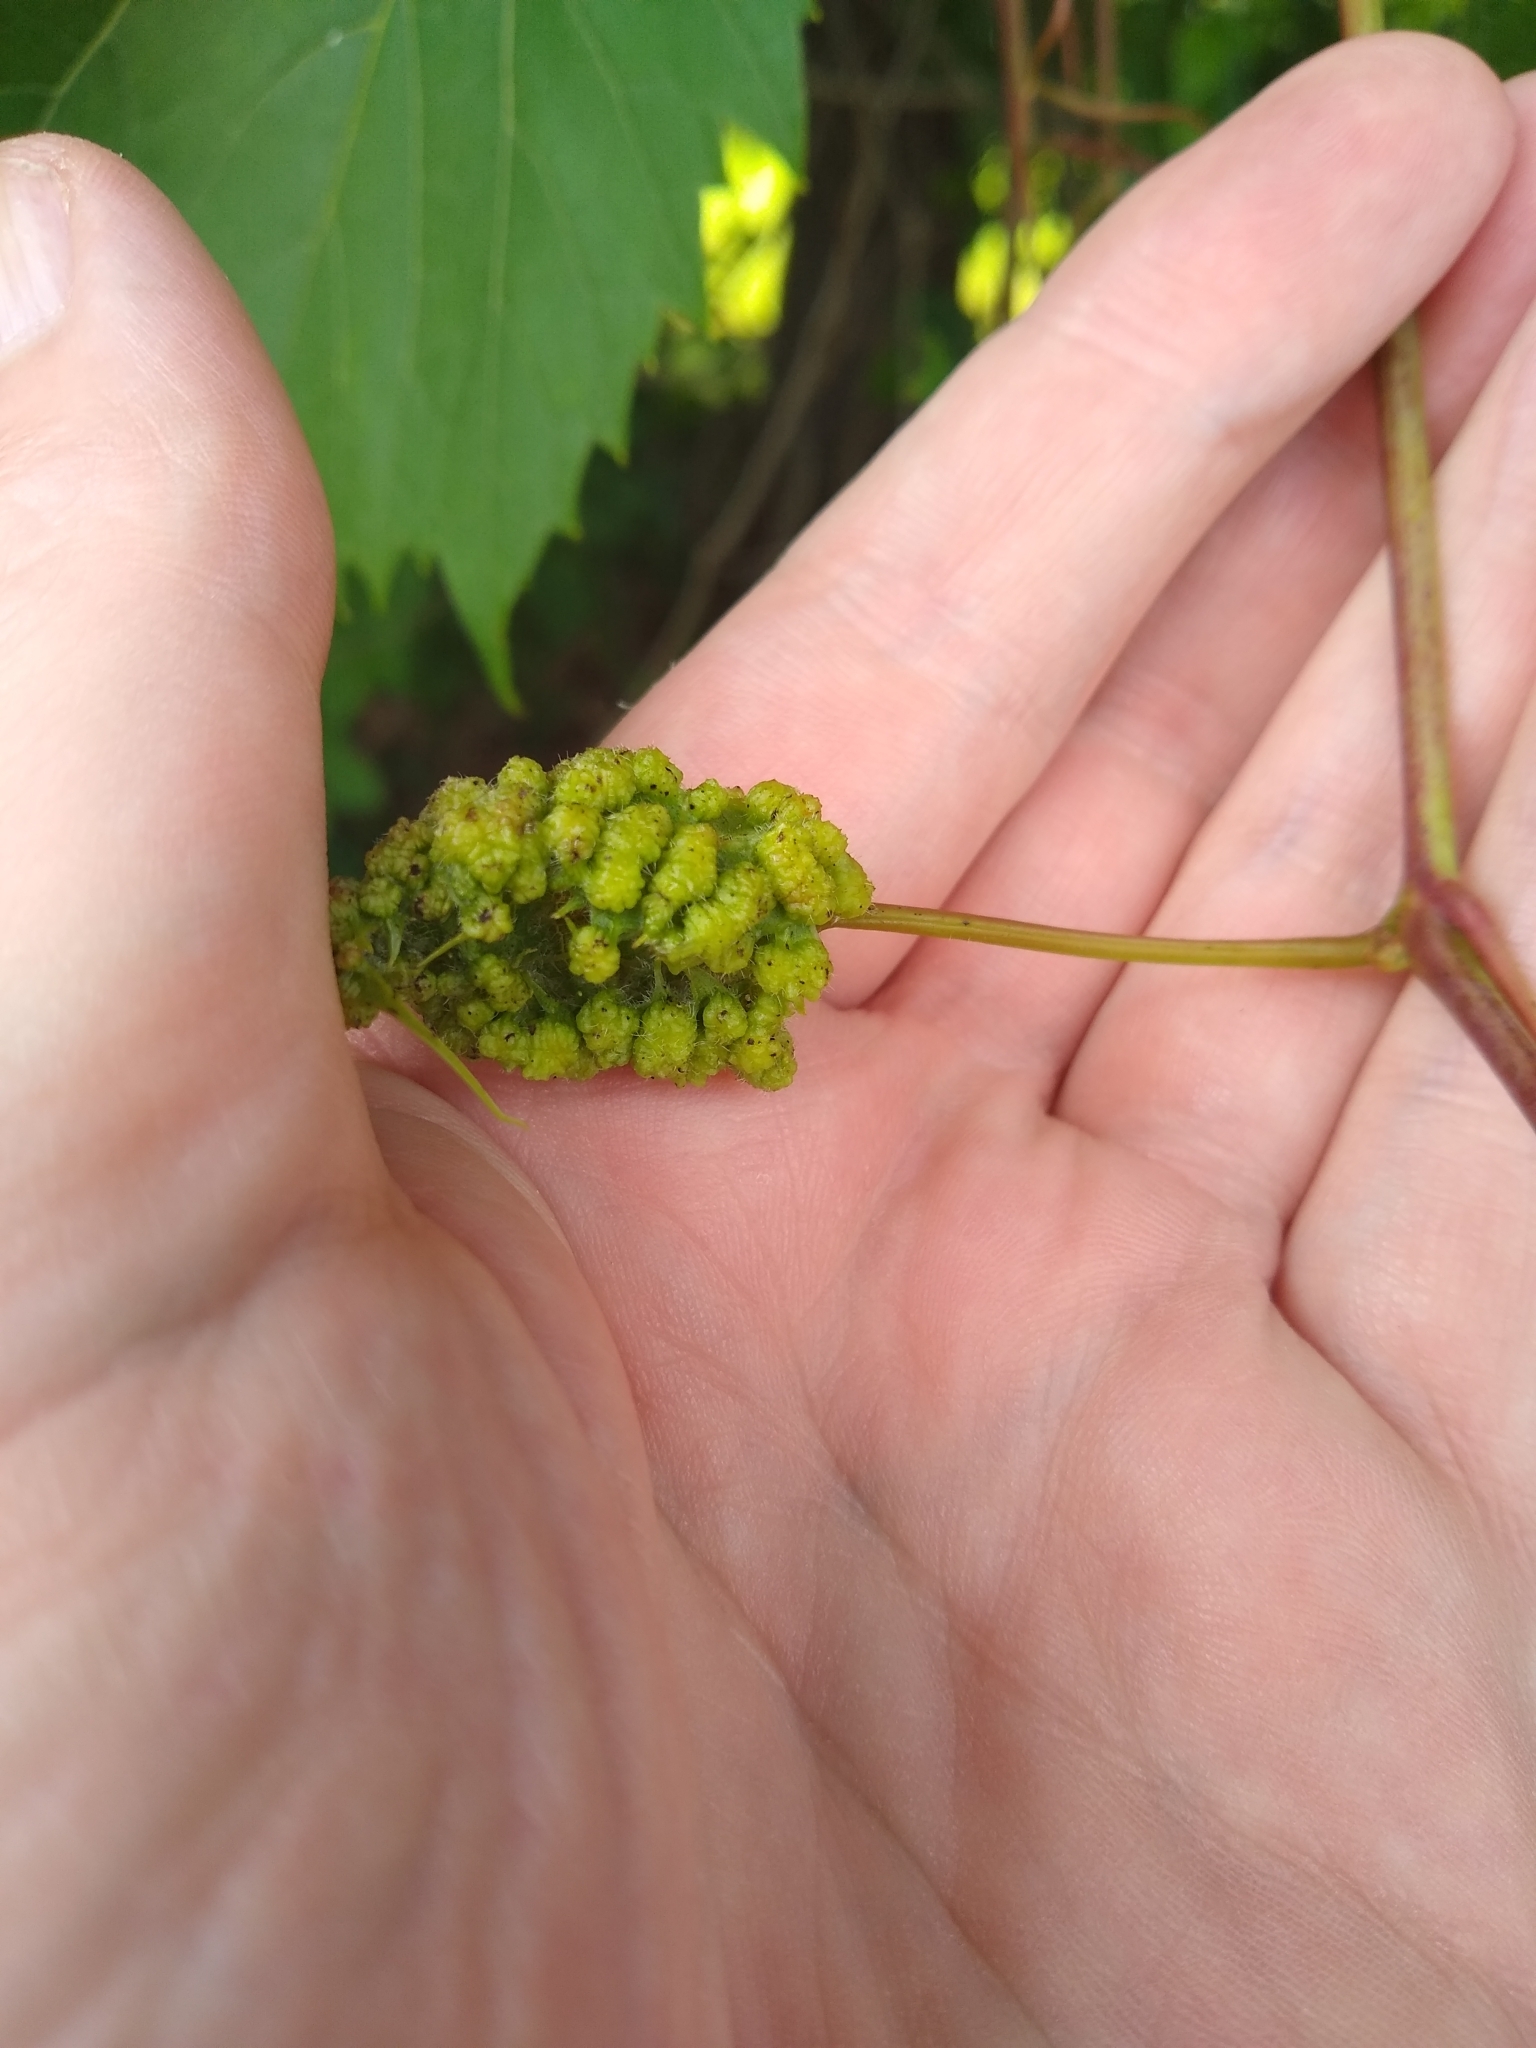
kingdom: Animalia
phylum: Arthropoda
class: Insecta
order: Hemiptera
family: Phylloxeridae
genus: Daktulosphaira
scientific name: Daktulosphaira vitifoliae
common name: Grape phylloxera
